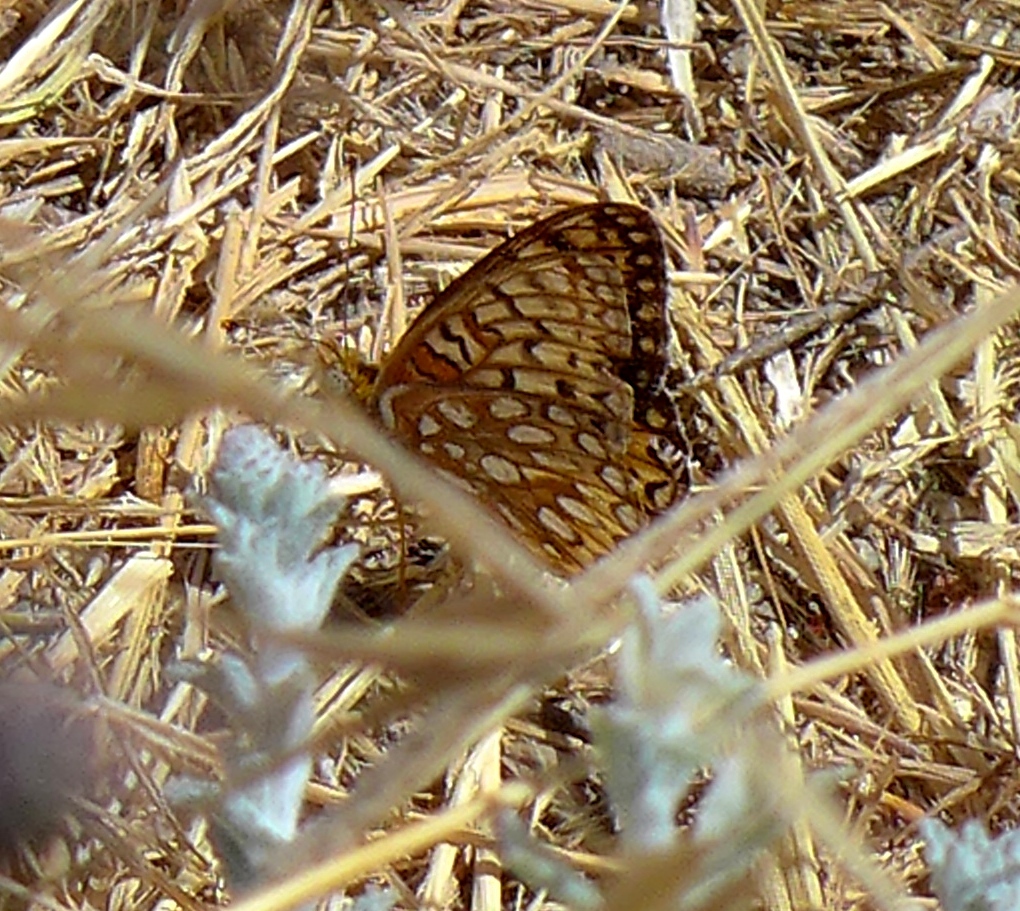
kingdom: Animalia
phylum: Arthropoda
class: Insecta
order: Lepidoptera
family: Nymphalidae
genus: Speyeria
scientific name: Speyeria callippe
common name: Callippe fritillary
